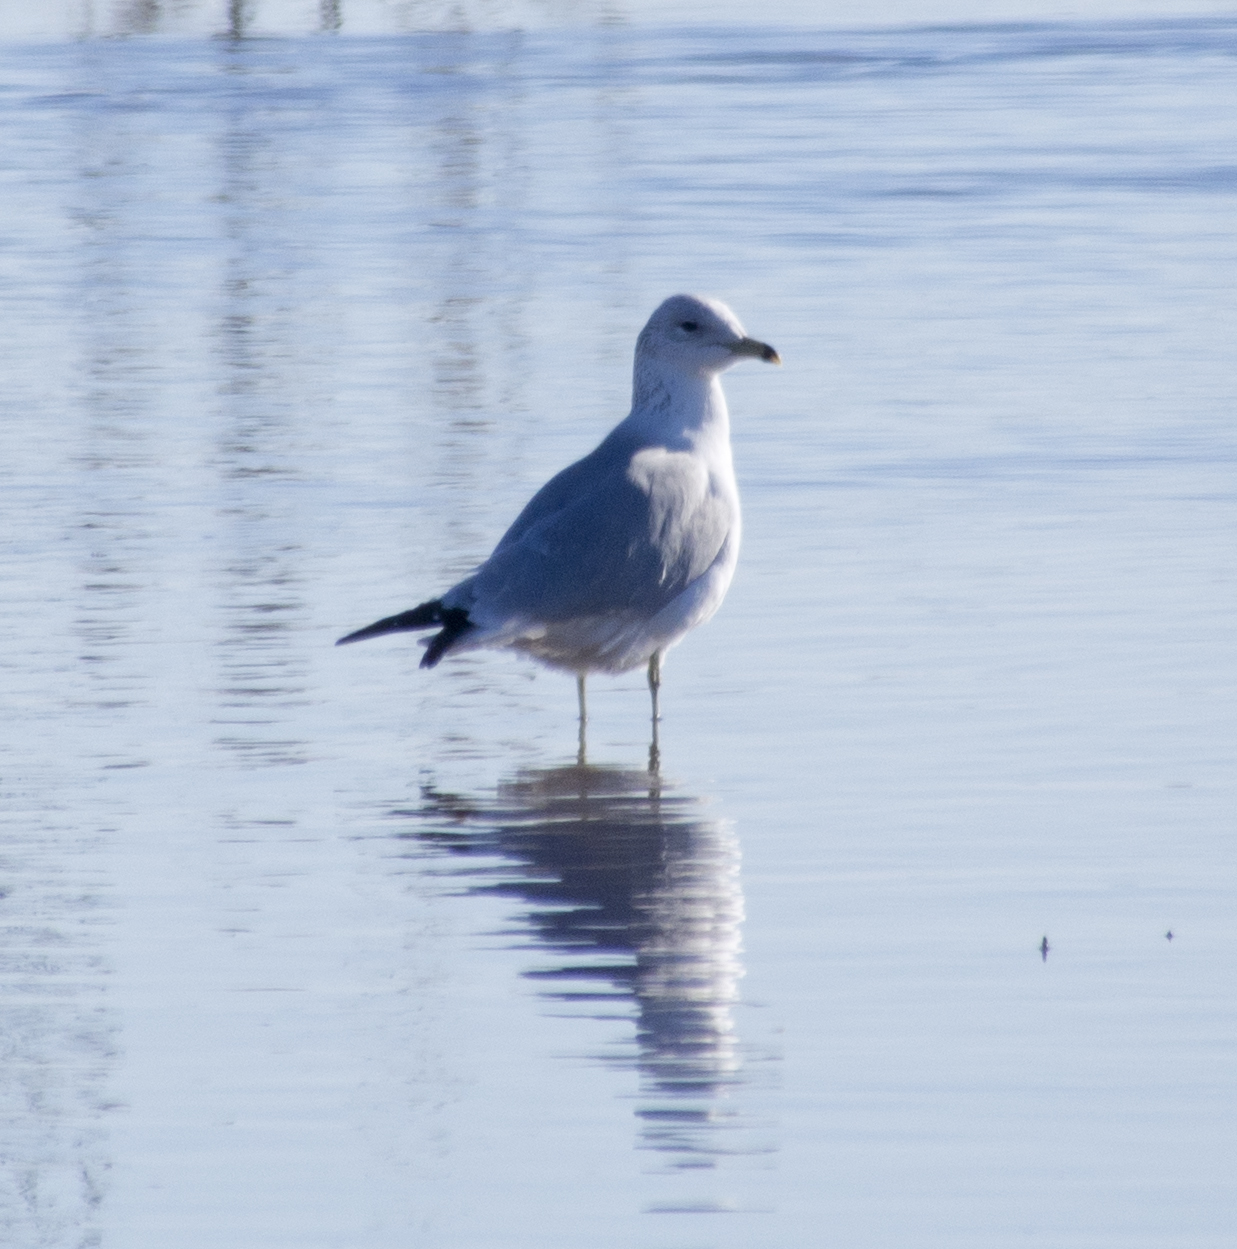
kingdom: Animalia
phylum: Chordata
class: Aves
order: Charadriiformes
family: Laridae
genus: Larus
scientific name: Larus delawarensis
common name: Ring-billed gull
